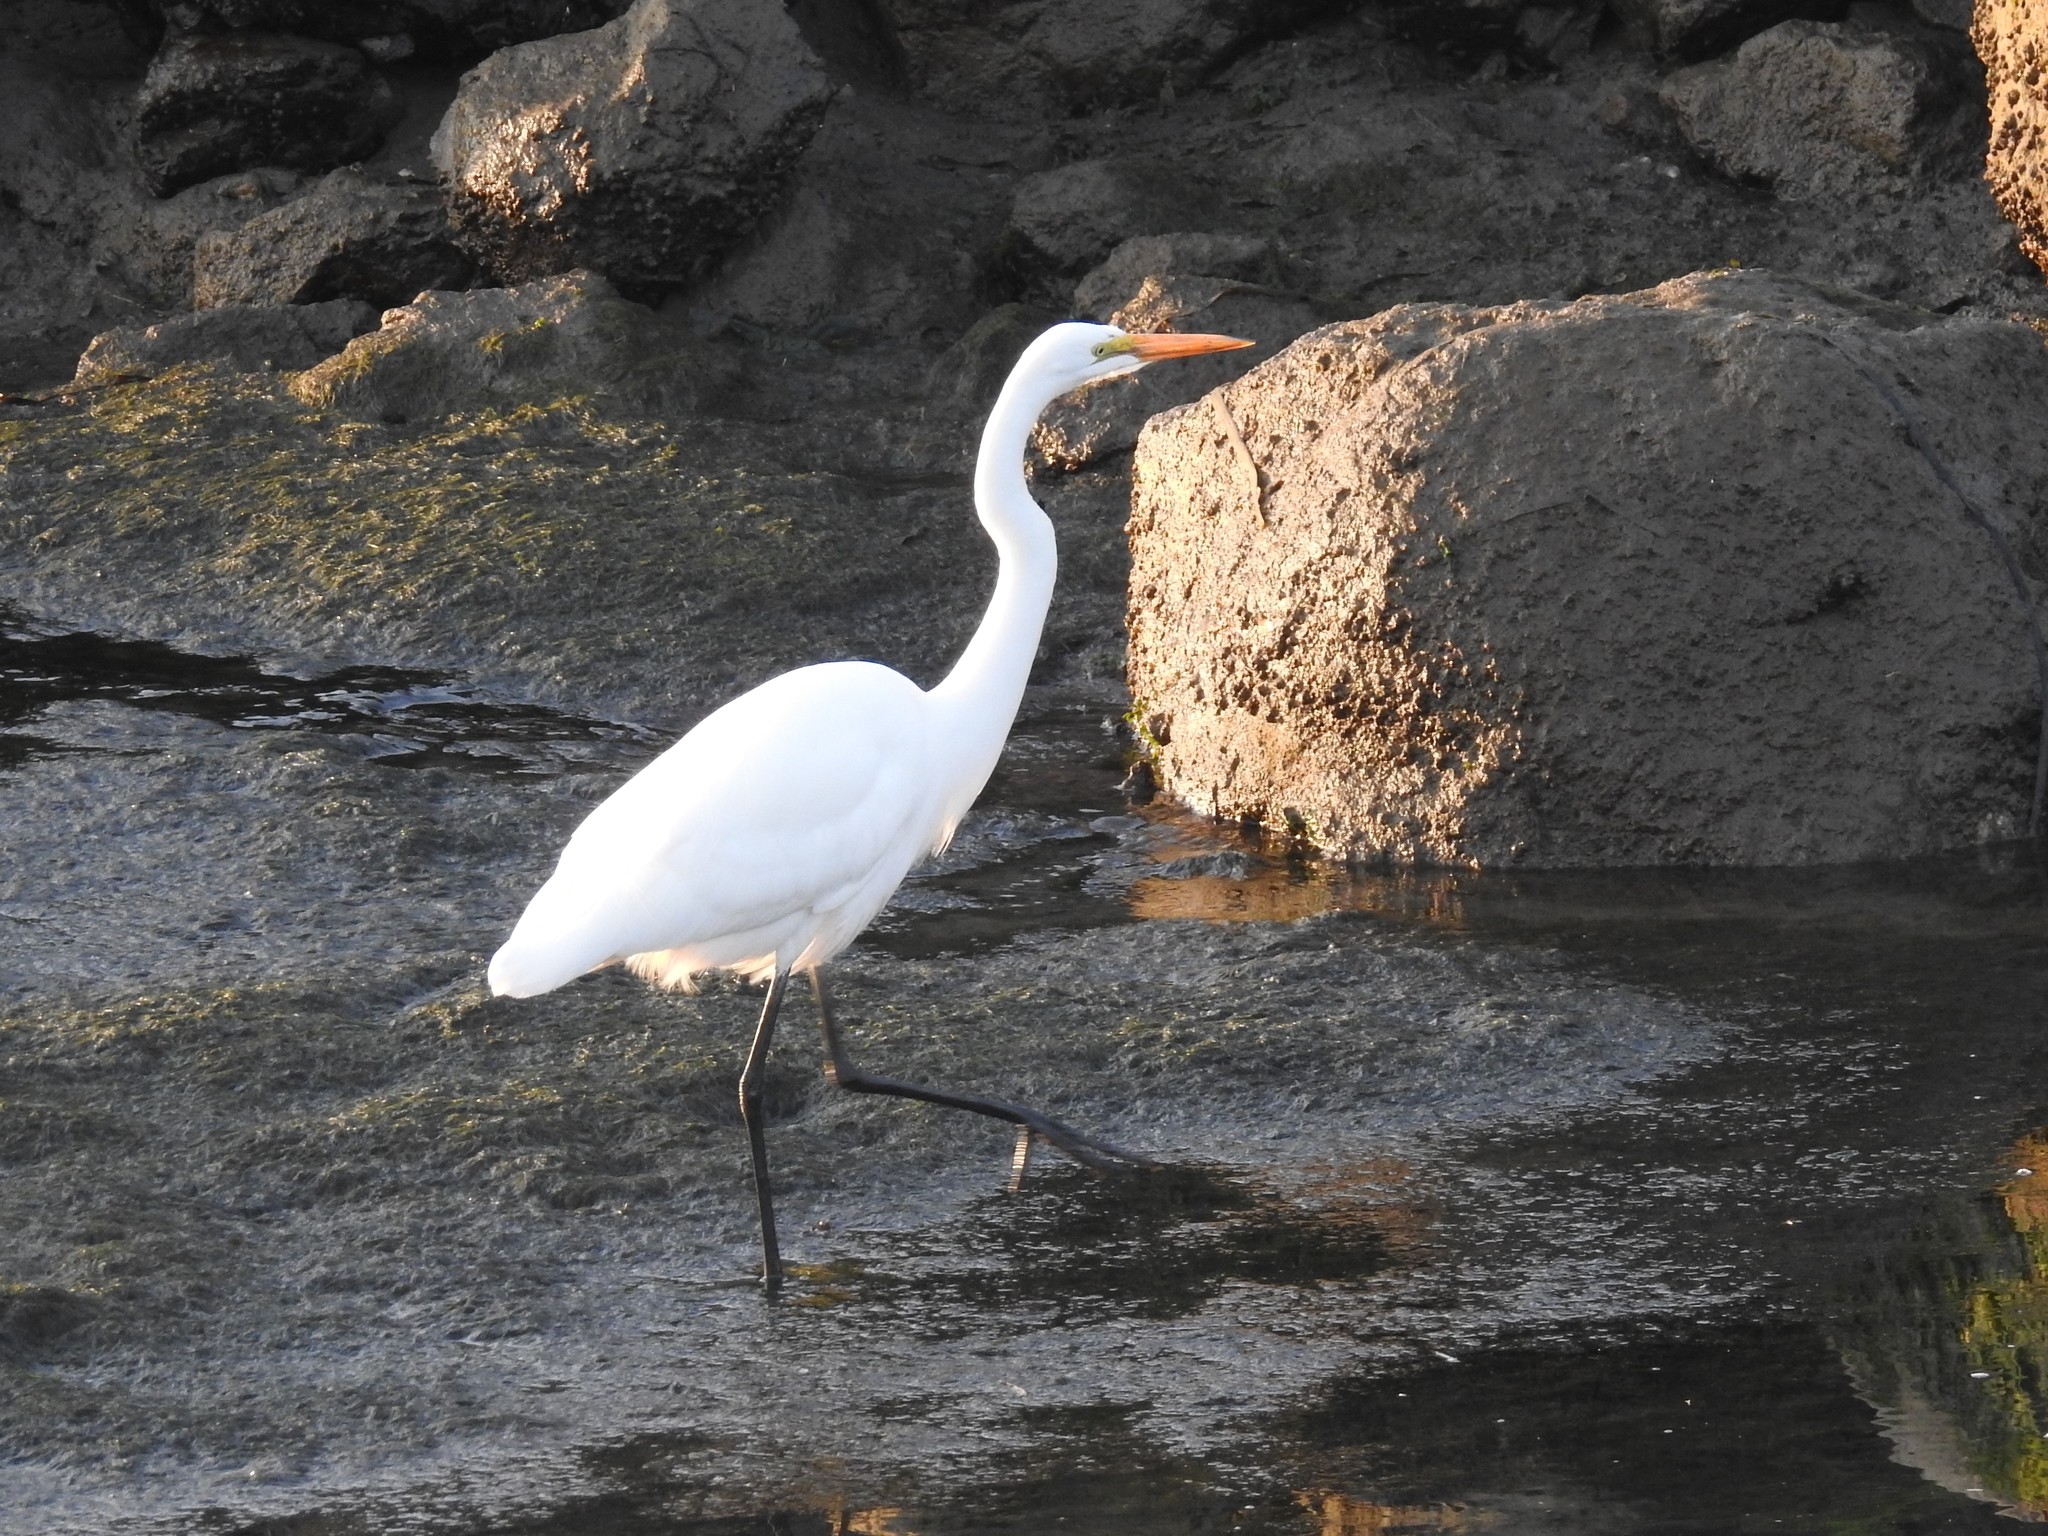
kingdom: Animalia
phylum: Chordata
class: Aves
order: Pelecaniformes
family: Ardeidae
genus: Ardea
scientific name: Ardea alba
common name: Great egret
